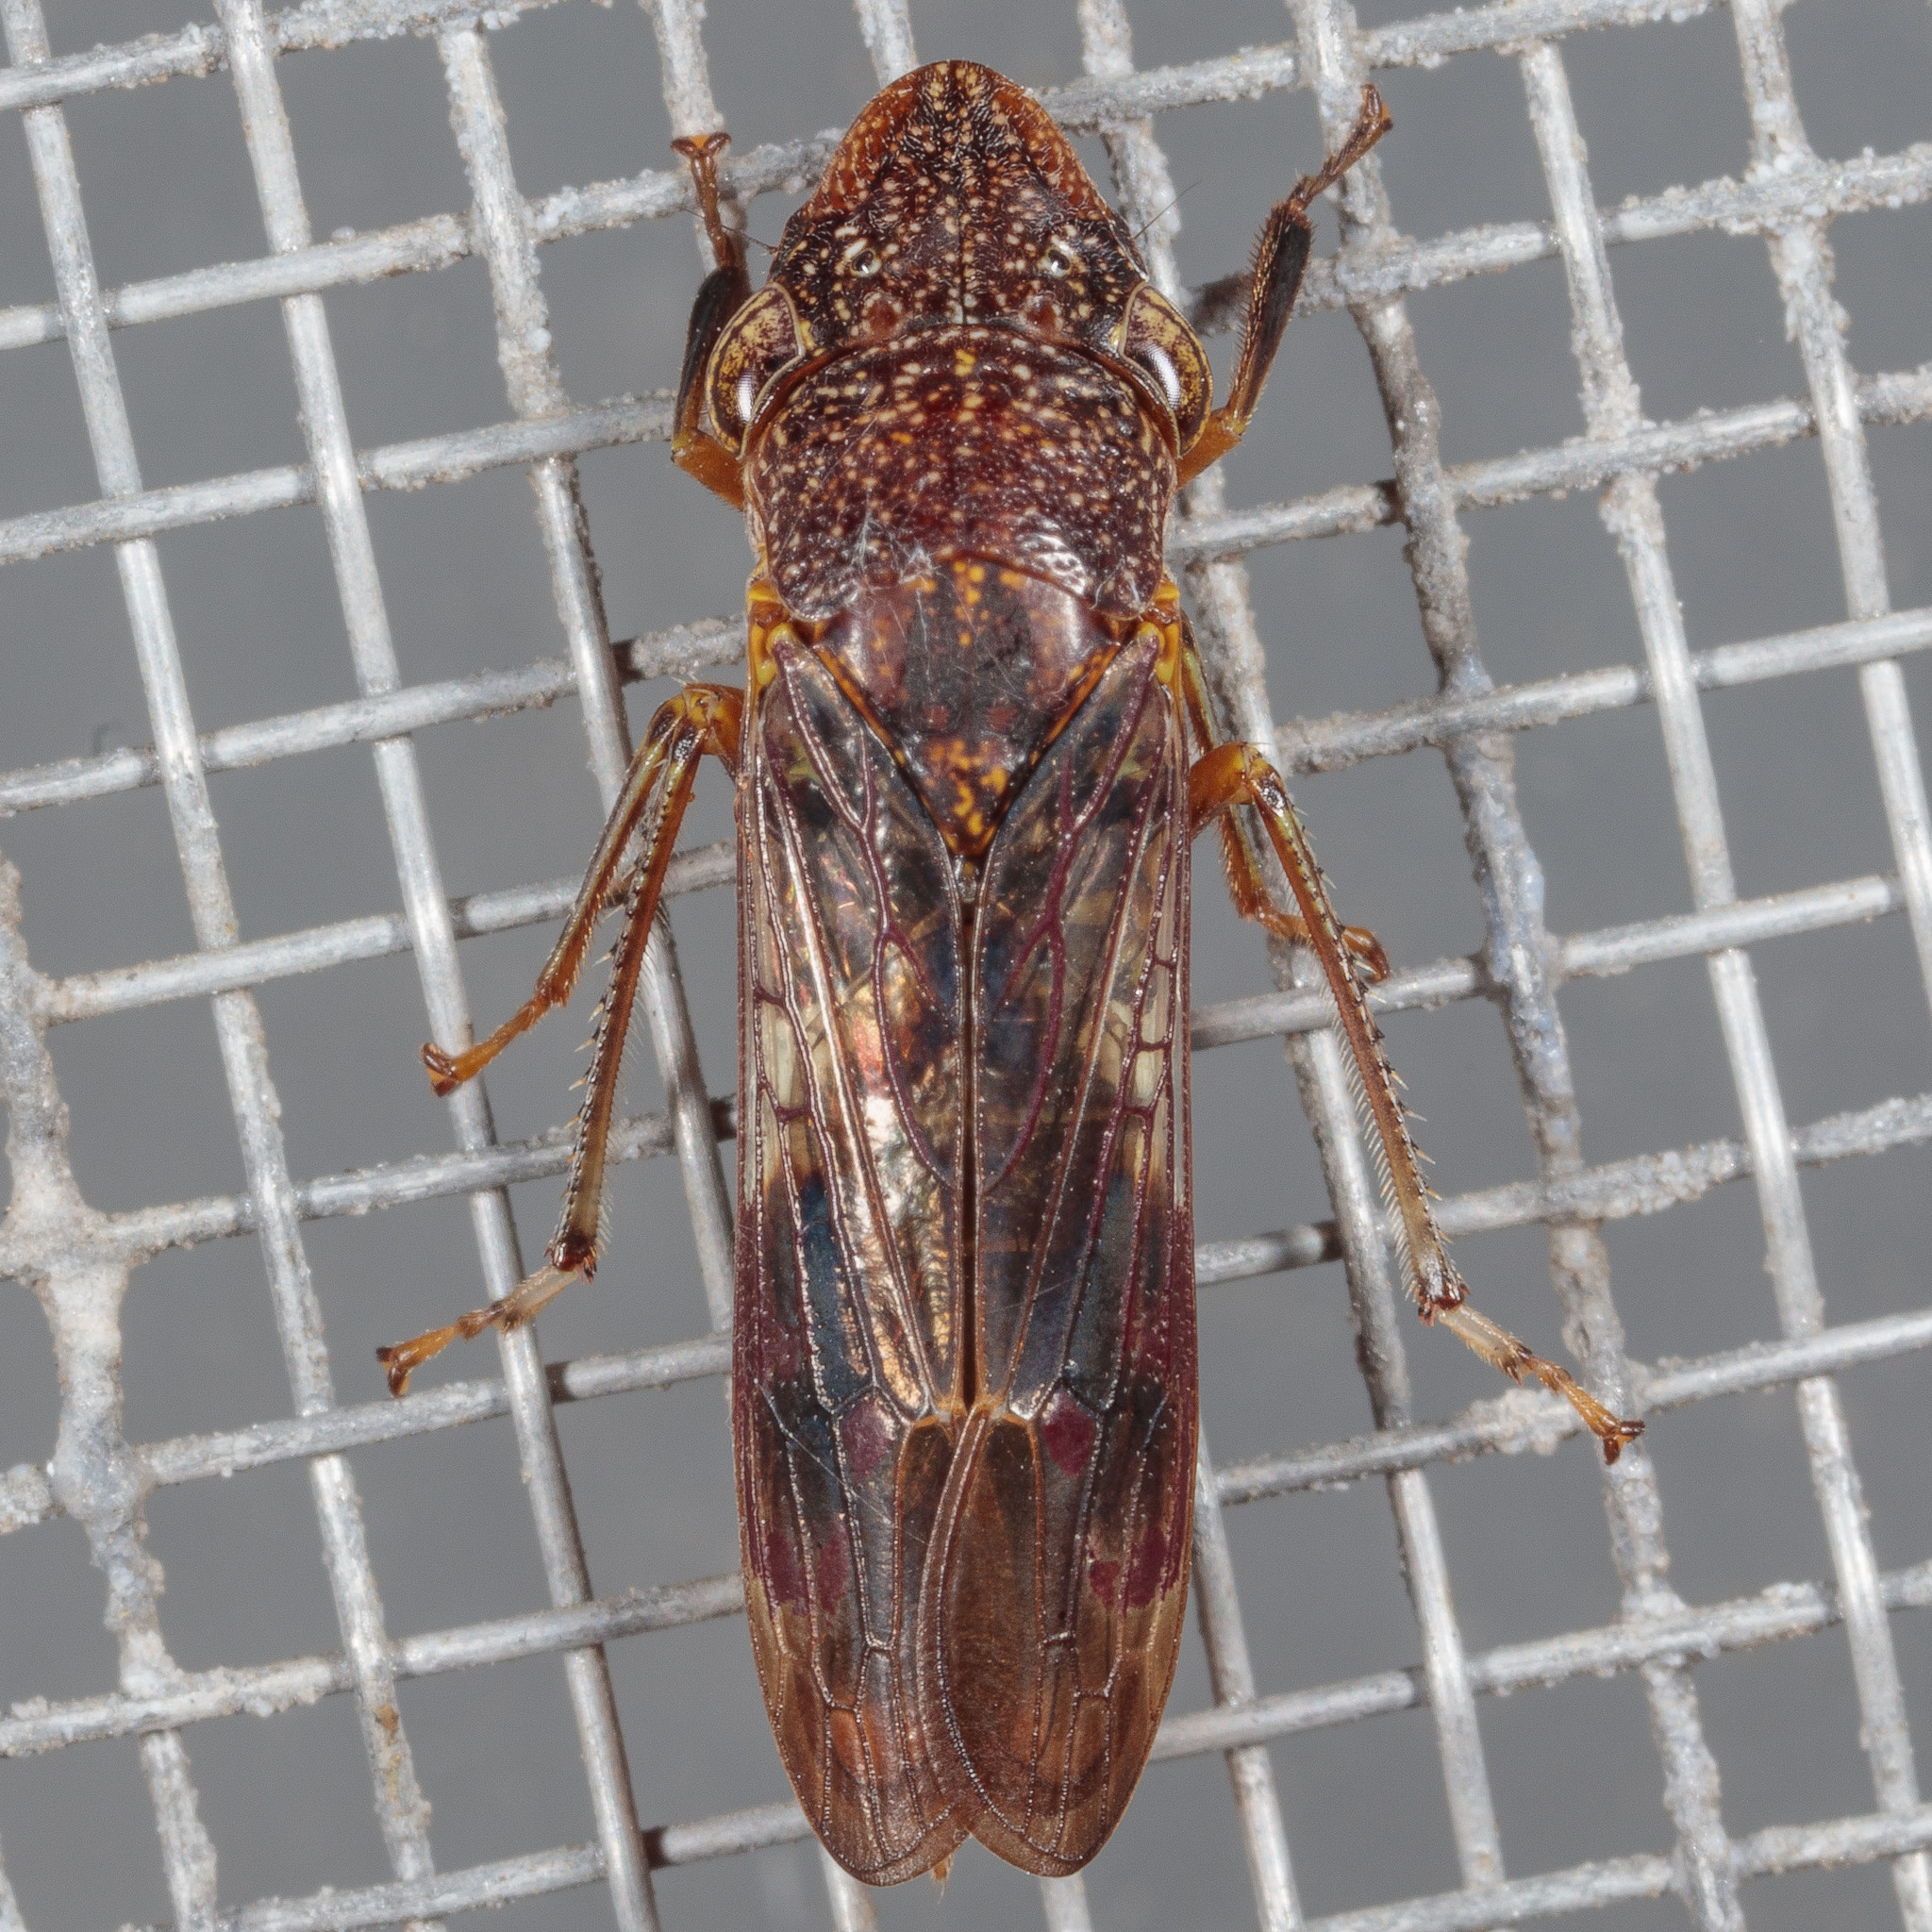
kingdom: Animalia
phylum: Arthropoda
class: Insecta
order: Hemiptera
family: Cicadellidae
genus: Homalodisca
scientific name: Homalodisca vitripennis
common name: Glassy-winged sharpshooter
